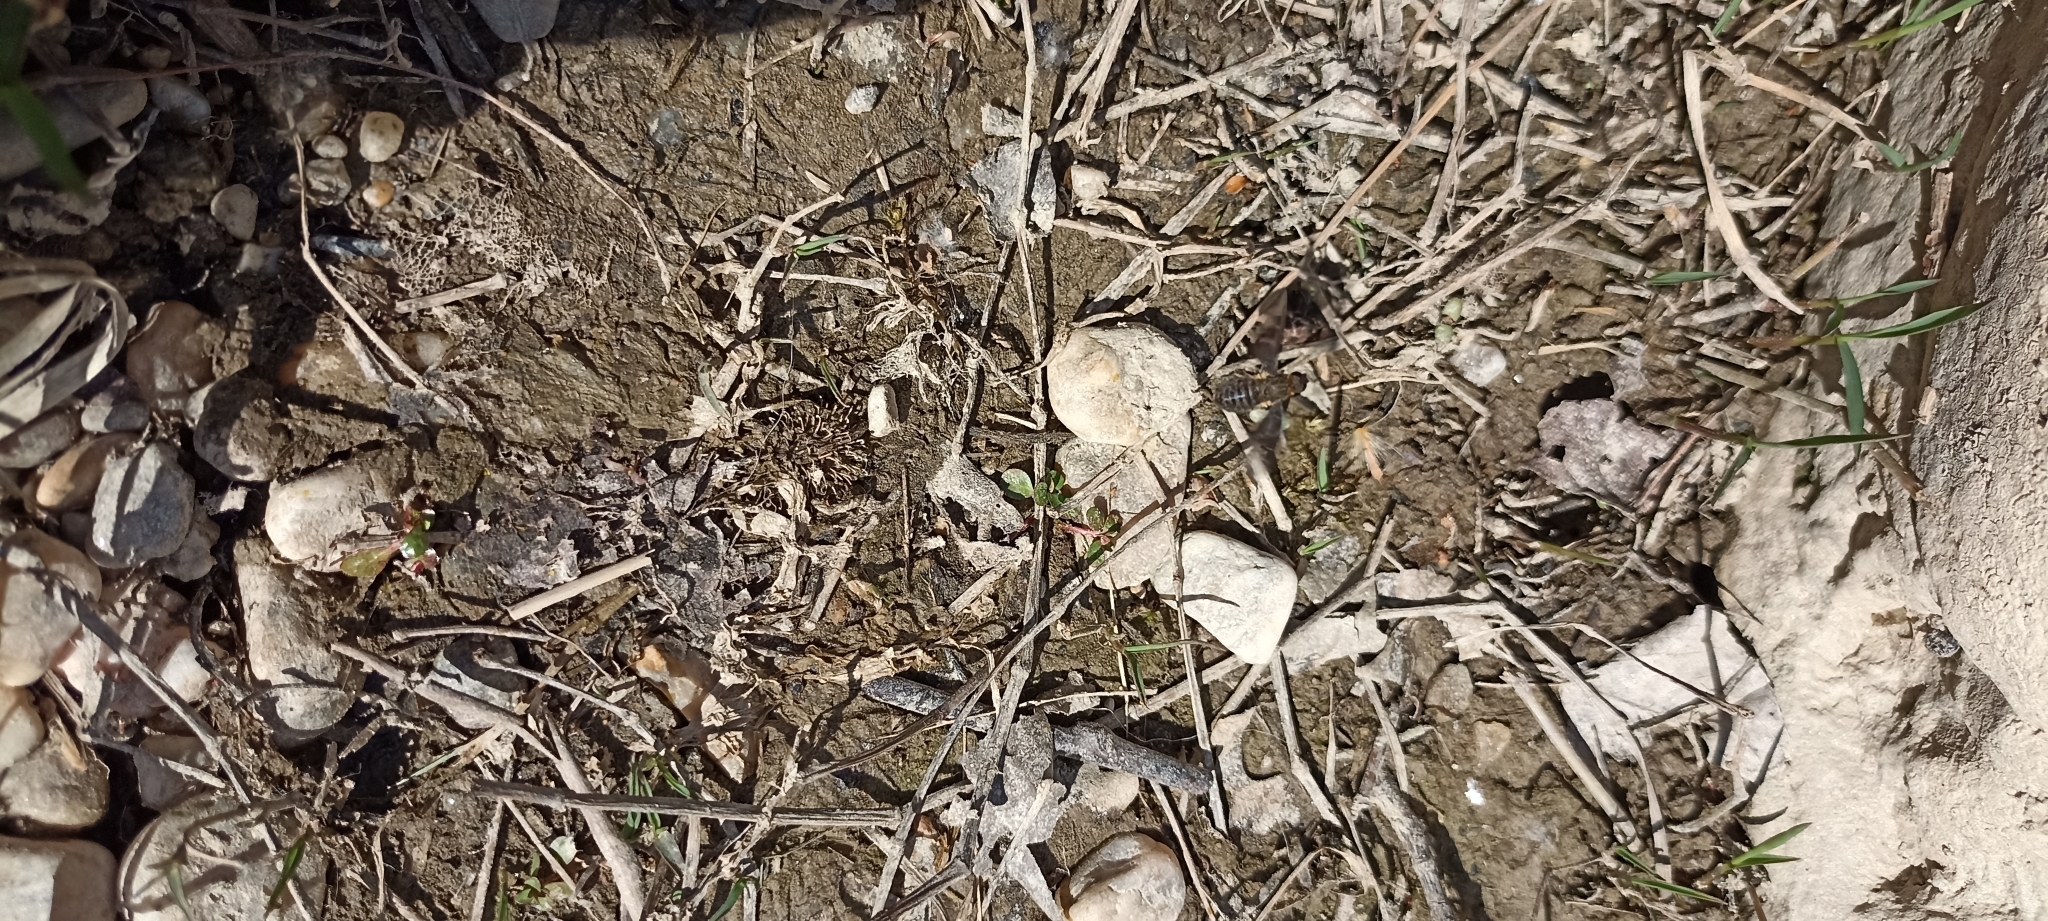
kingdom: Animalia
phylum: Arthropoda
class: Insecta
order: Diptera
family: Bombyliidae
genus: Hemipenthes
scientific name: Hemipenthes morio
